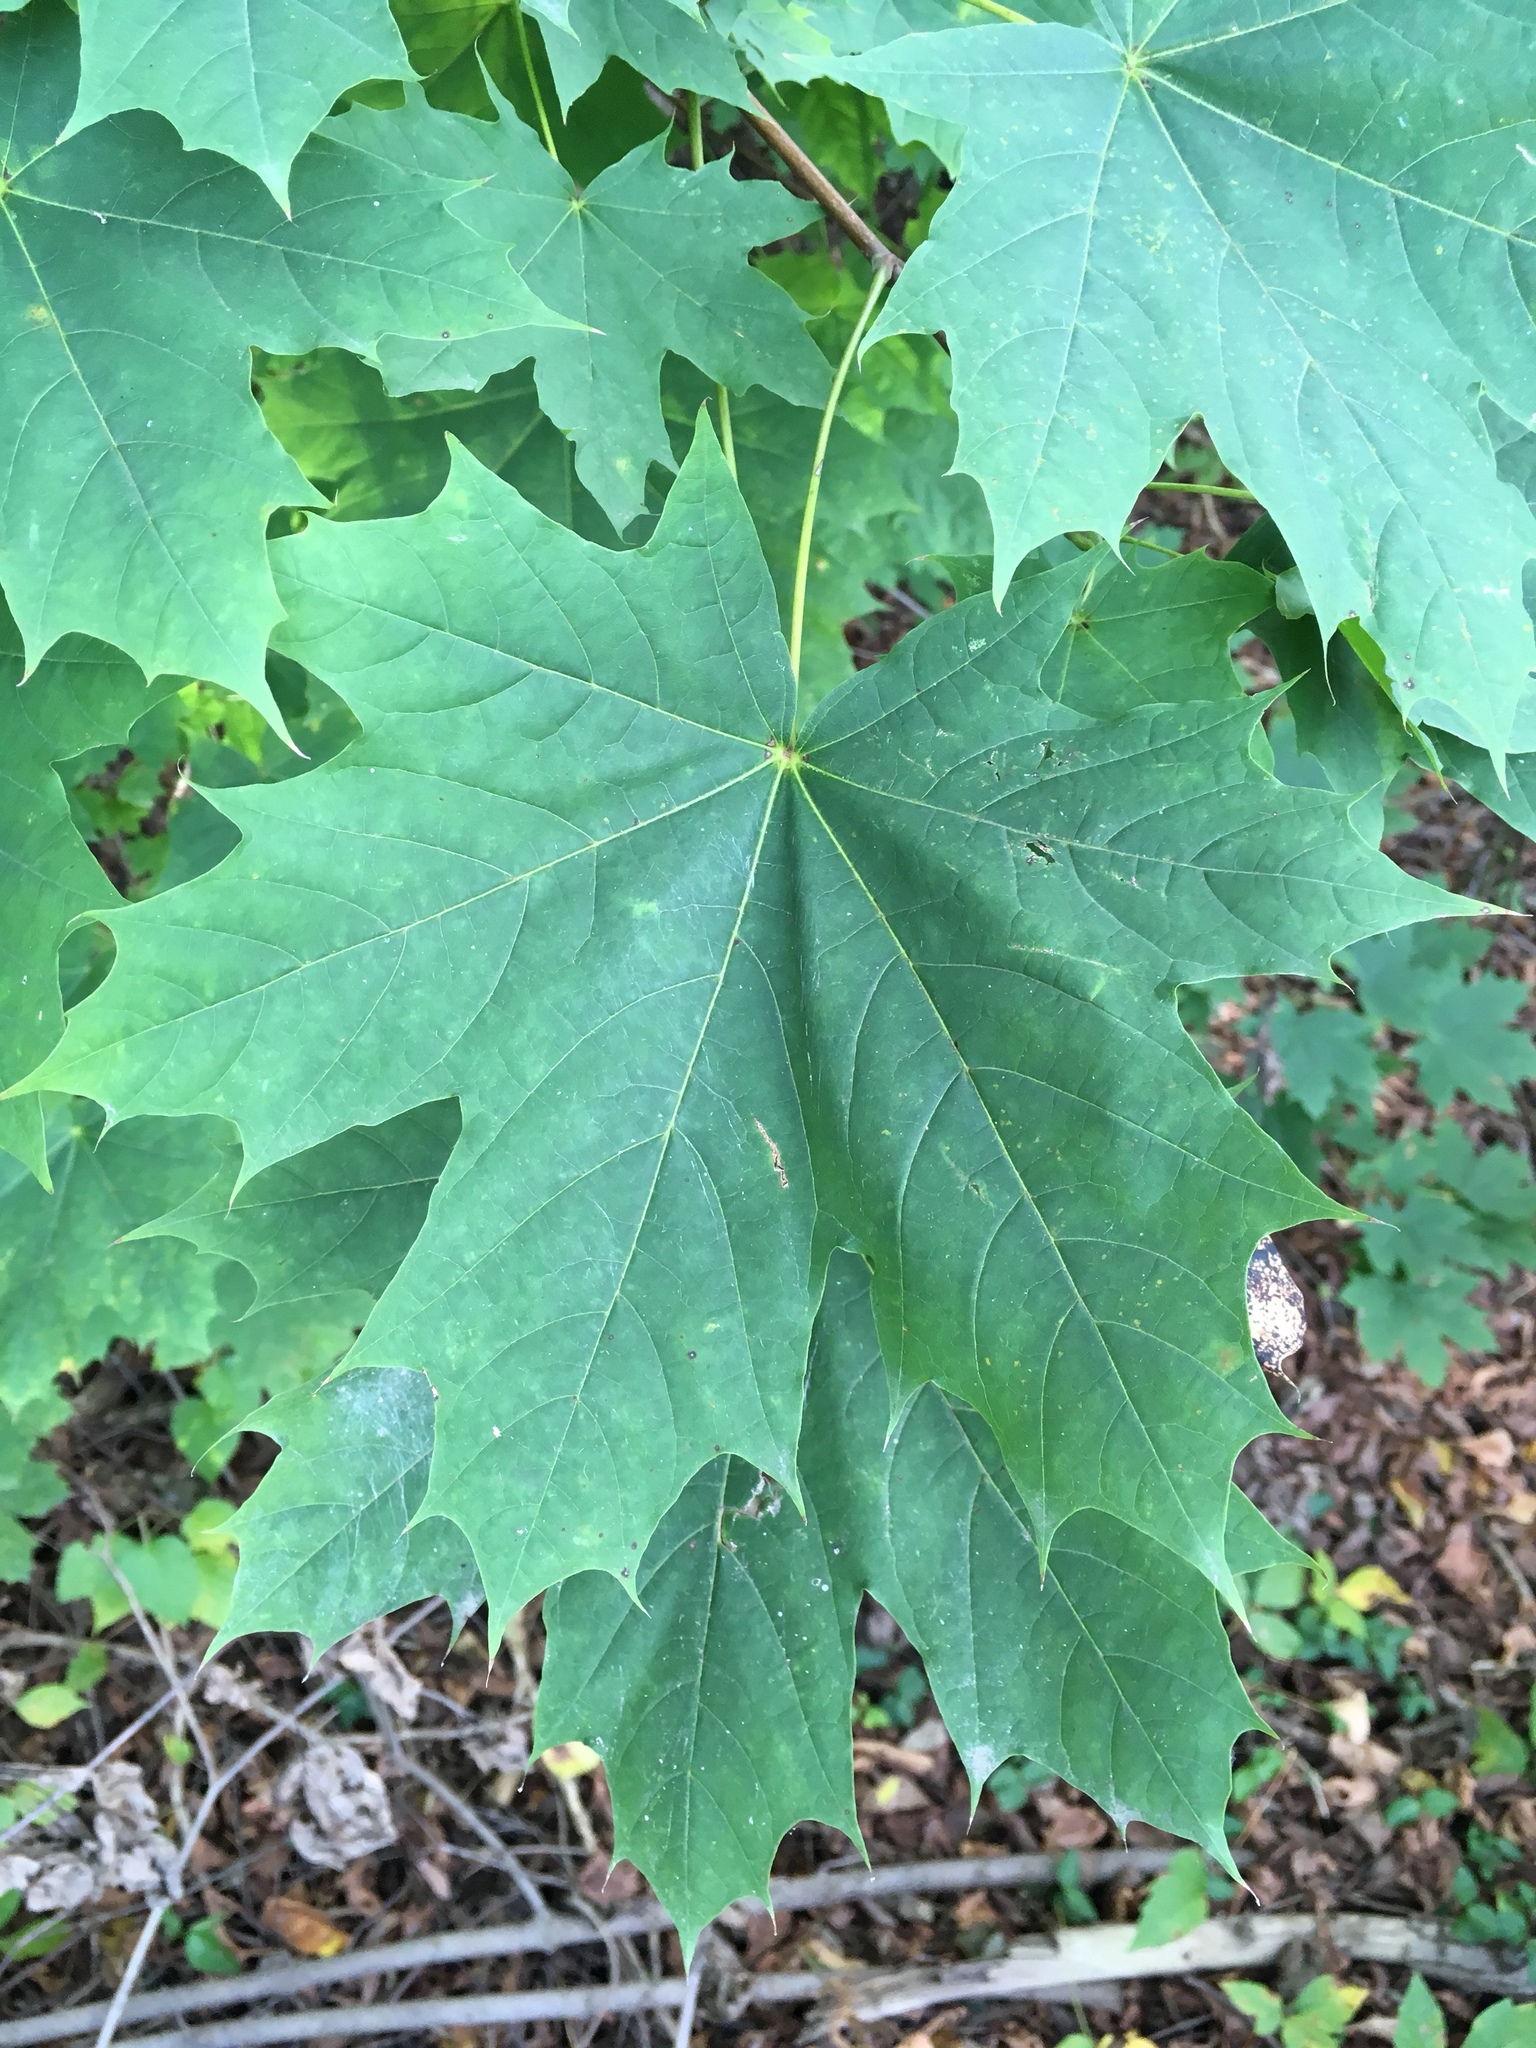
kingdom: Plantae
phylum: Tracheophyta
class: Magnoliopsida
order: Sapindales
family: Sapindaceae
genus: Acer
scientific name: Acer platanoides
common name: Norway maple
